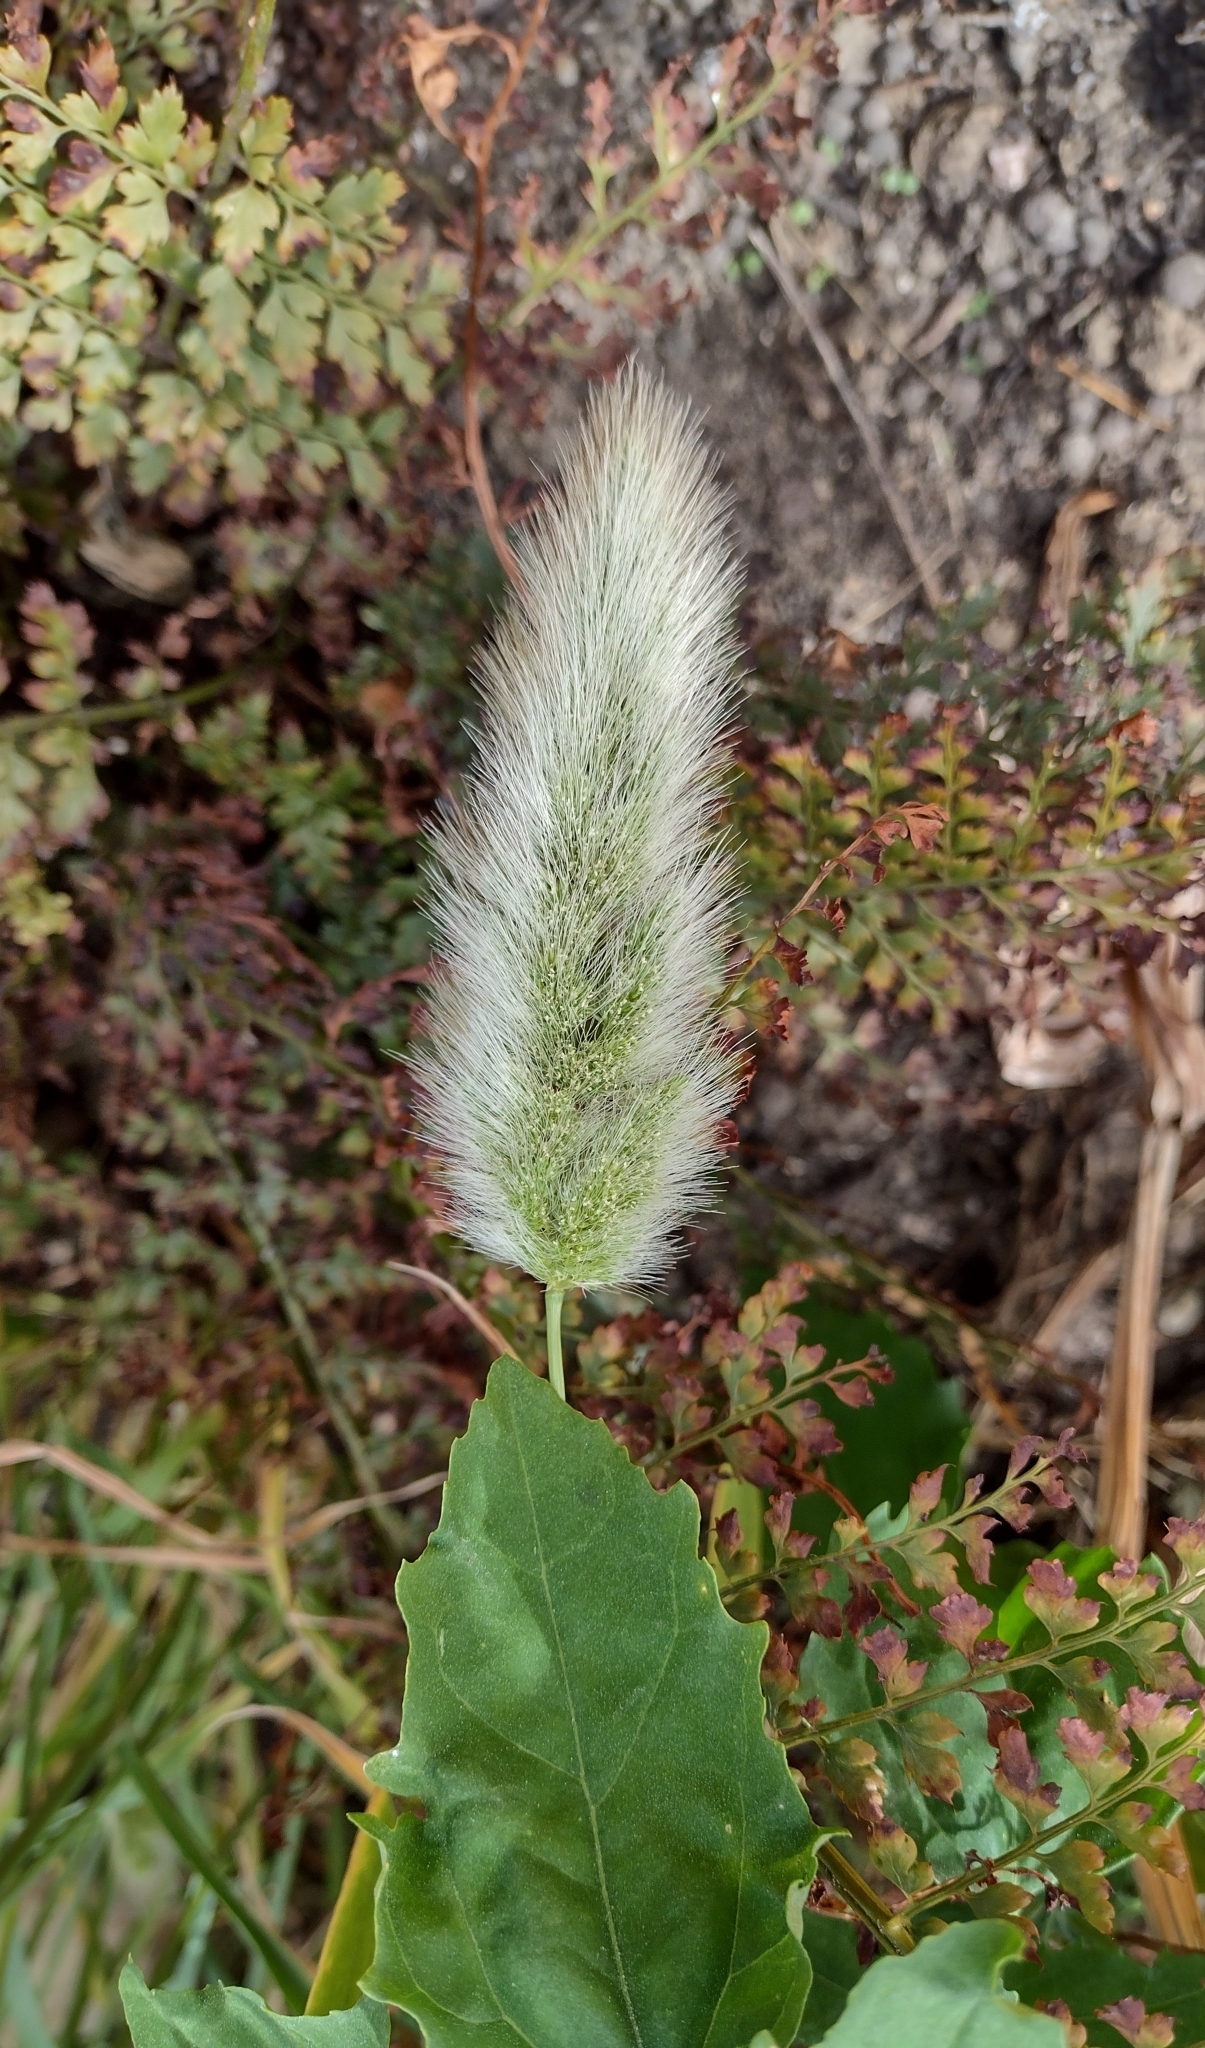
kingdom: Plantae
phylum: Tracheophyta
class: Liliopsida
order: Poales
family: Poaceae
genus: Polypogon
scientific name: Polypogon monspeliensis
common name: Annual rabbitsfoot grass
